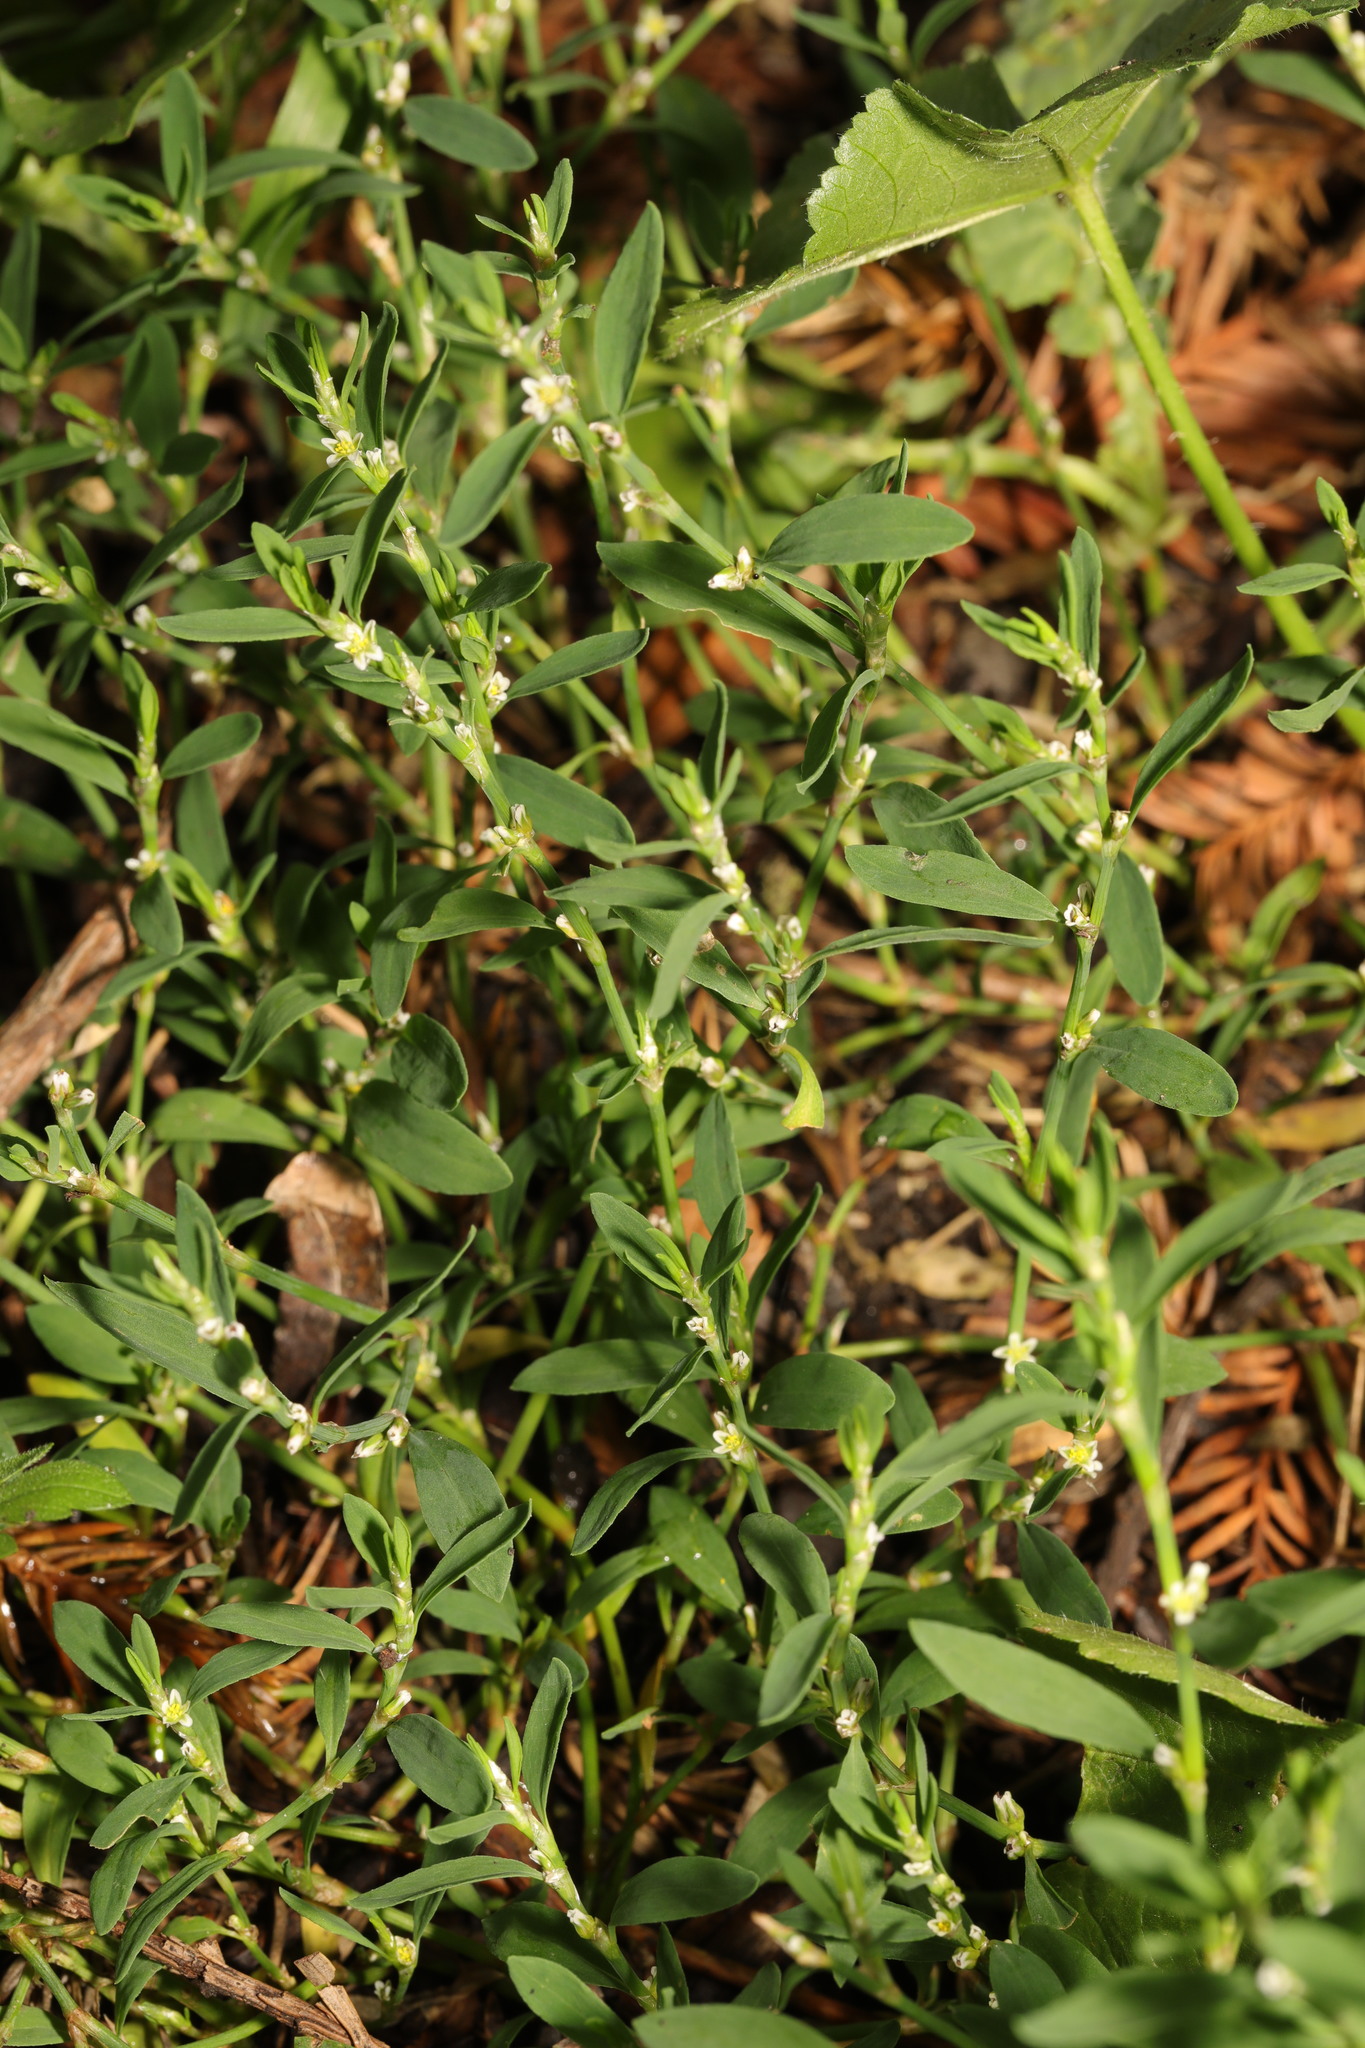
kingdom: Plantae
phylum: Tracheophyta
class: Magnoliopsida
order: Caryophyllales
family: Polygonaceae
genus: Polygonum
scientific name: Polygonum aviculare
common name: Prostrate knotweed
